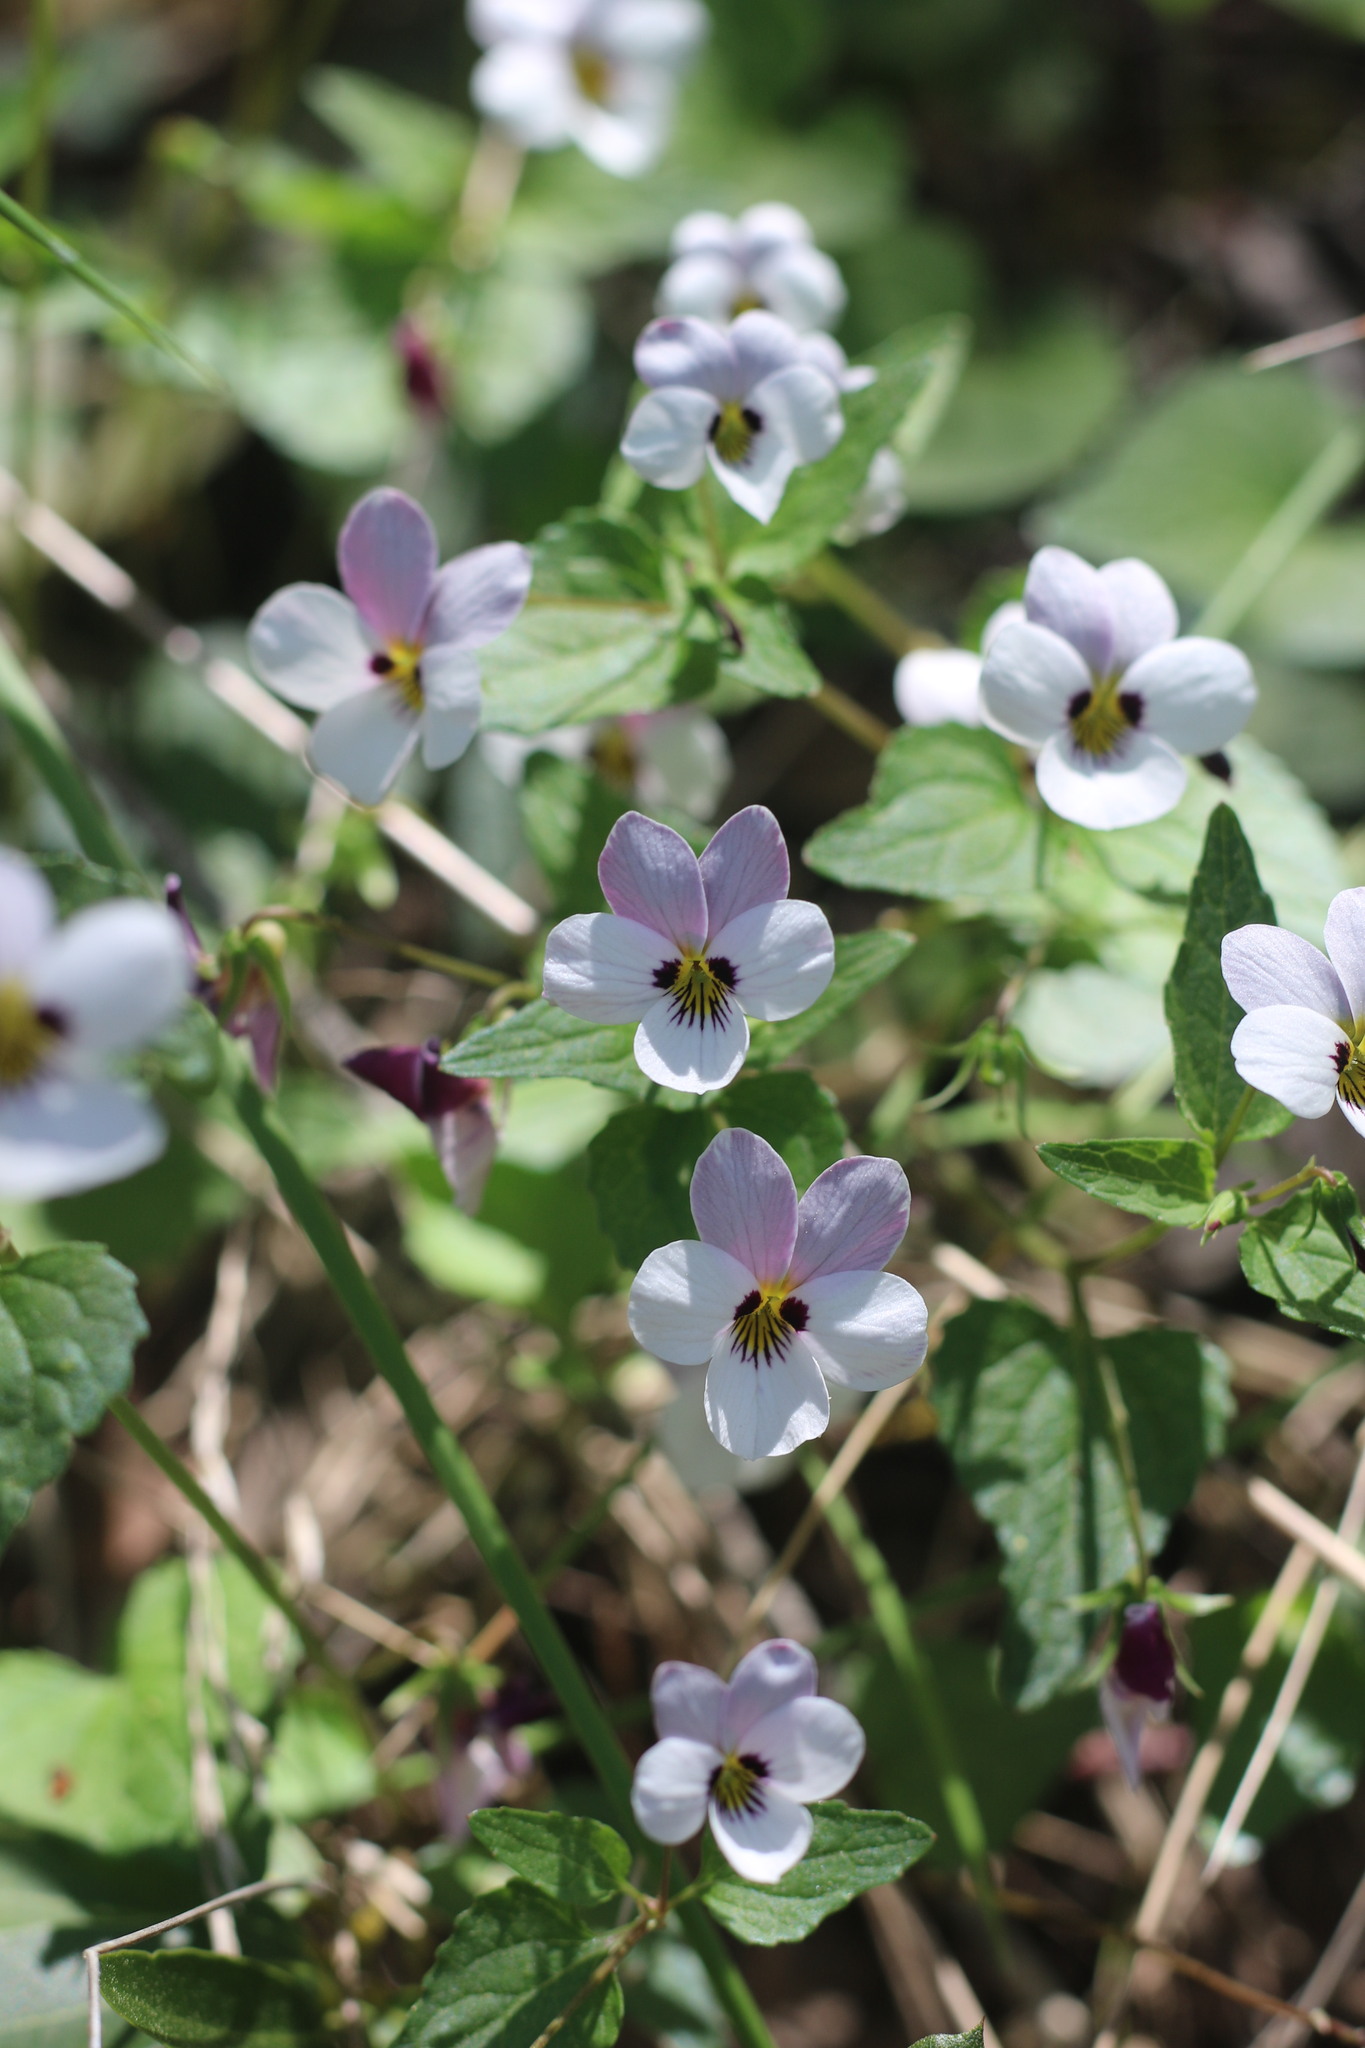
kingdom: Plantae
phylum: Tracheophyta
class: Magnoliopsida
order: Malpighiales
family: Violaceae
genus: Viola
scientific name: Viola ocellata
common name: Western heart's ease
